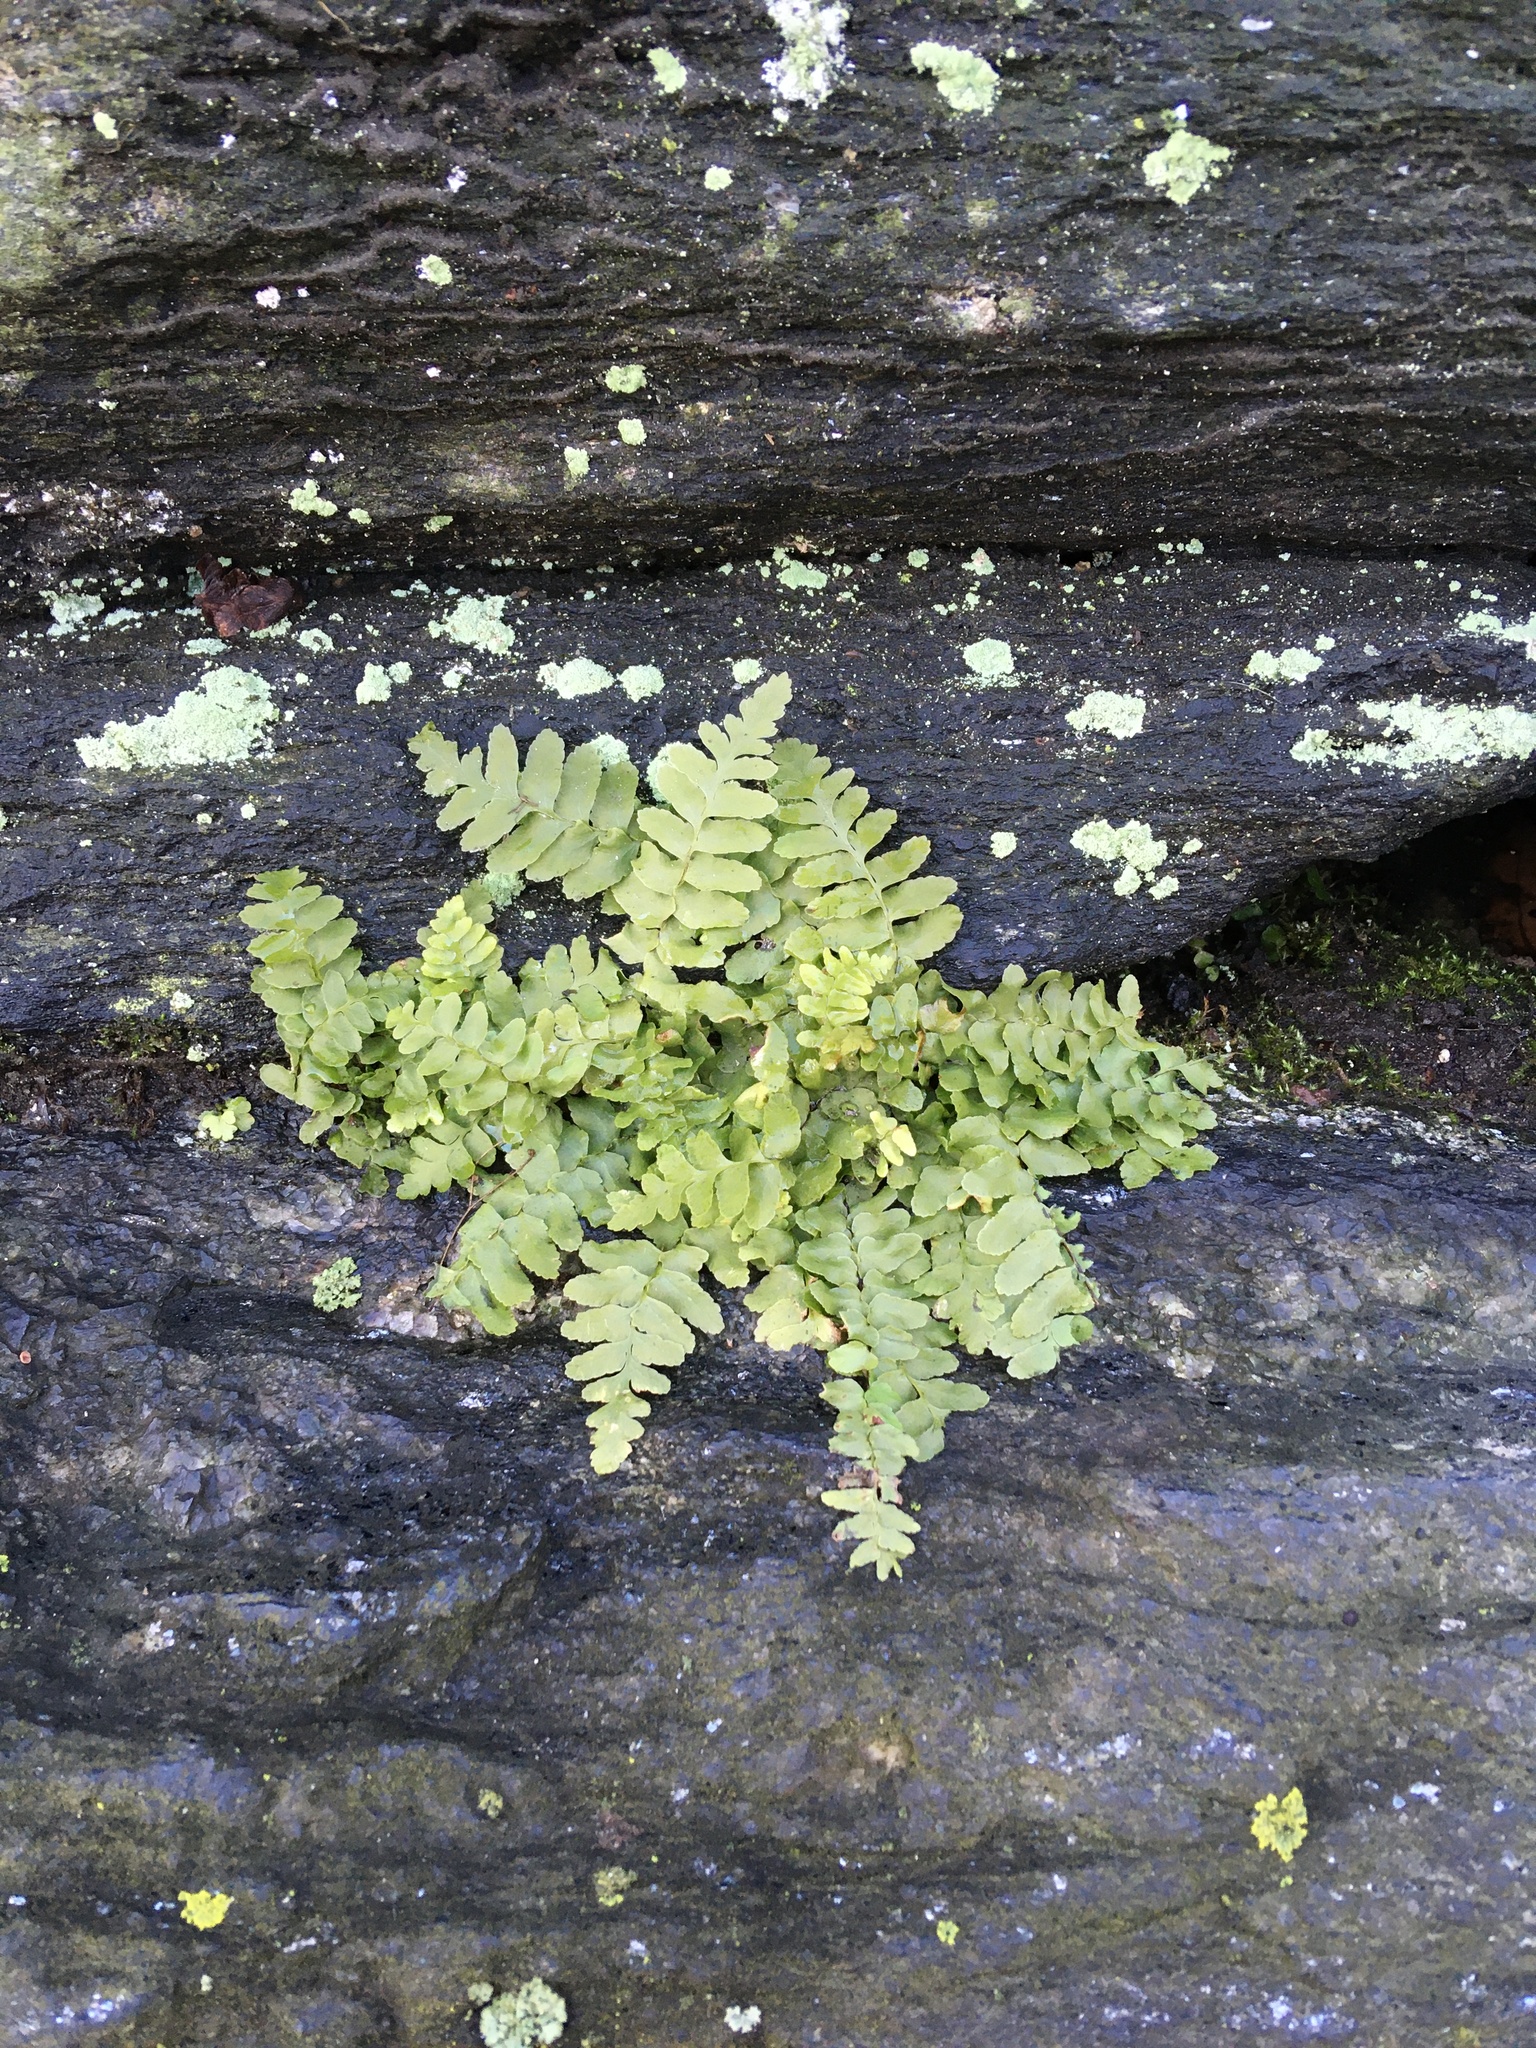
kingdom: Plantae
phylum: Tracheophyta
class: Polypodiopsida
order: Polypodiales
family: Aspleniaceae
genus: Asplenium
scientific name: Asplenium platyneuron
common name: Ebony spleenwort
